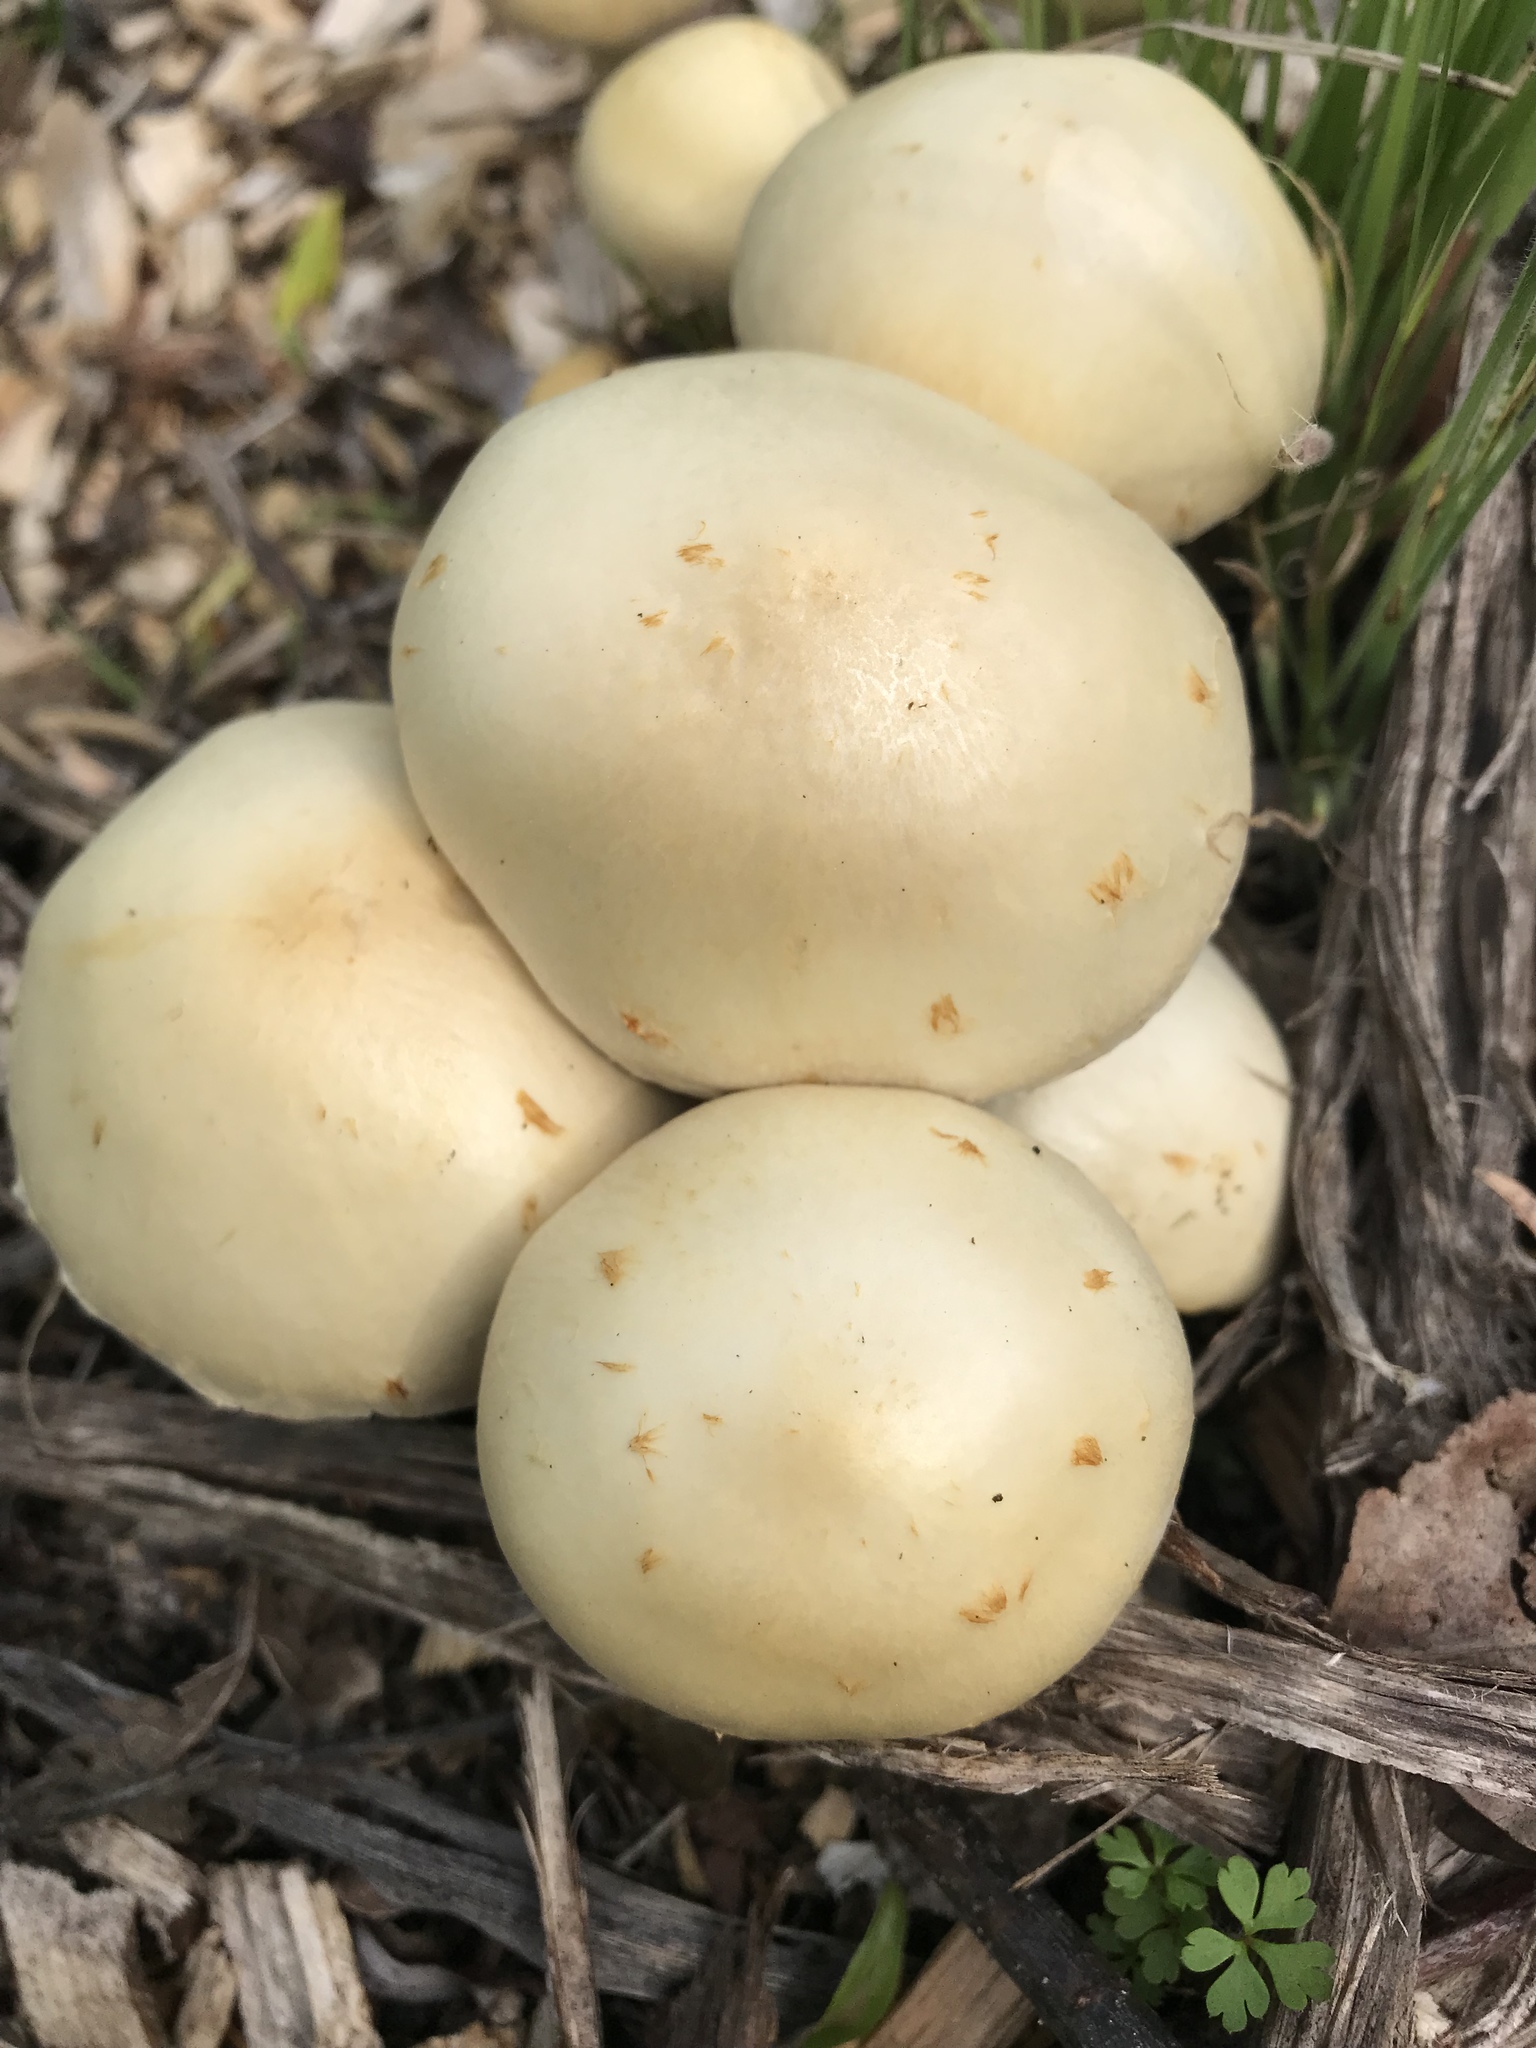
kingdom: Fungi
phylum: Basidiomycota
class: Agaricomycetes
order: Agaricales
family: Strophariaceae
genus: Leratiomyces
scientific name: Leratiomyces percevalii
